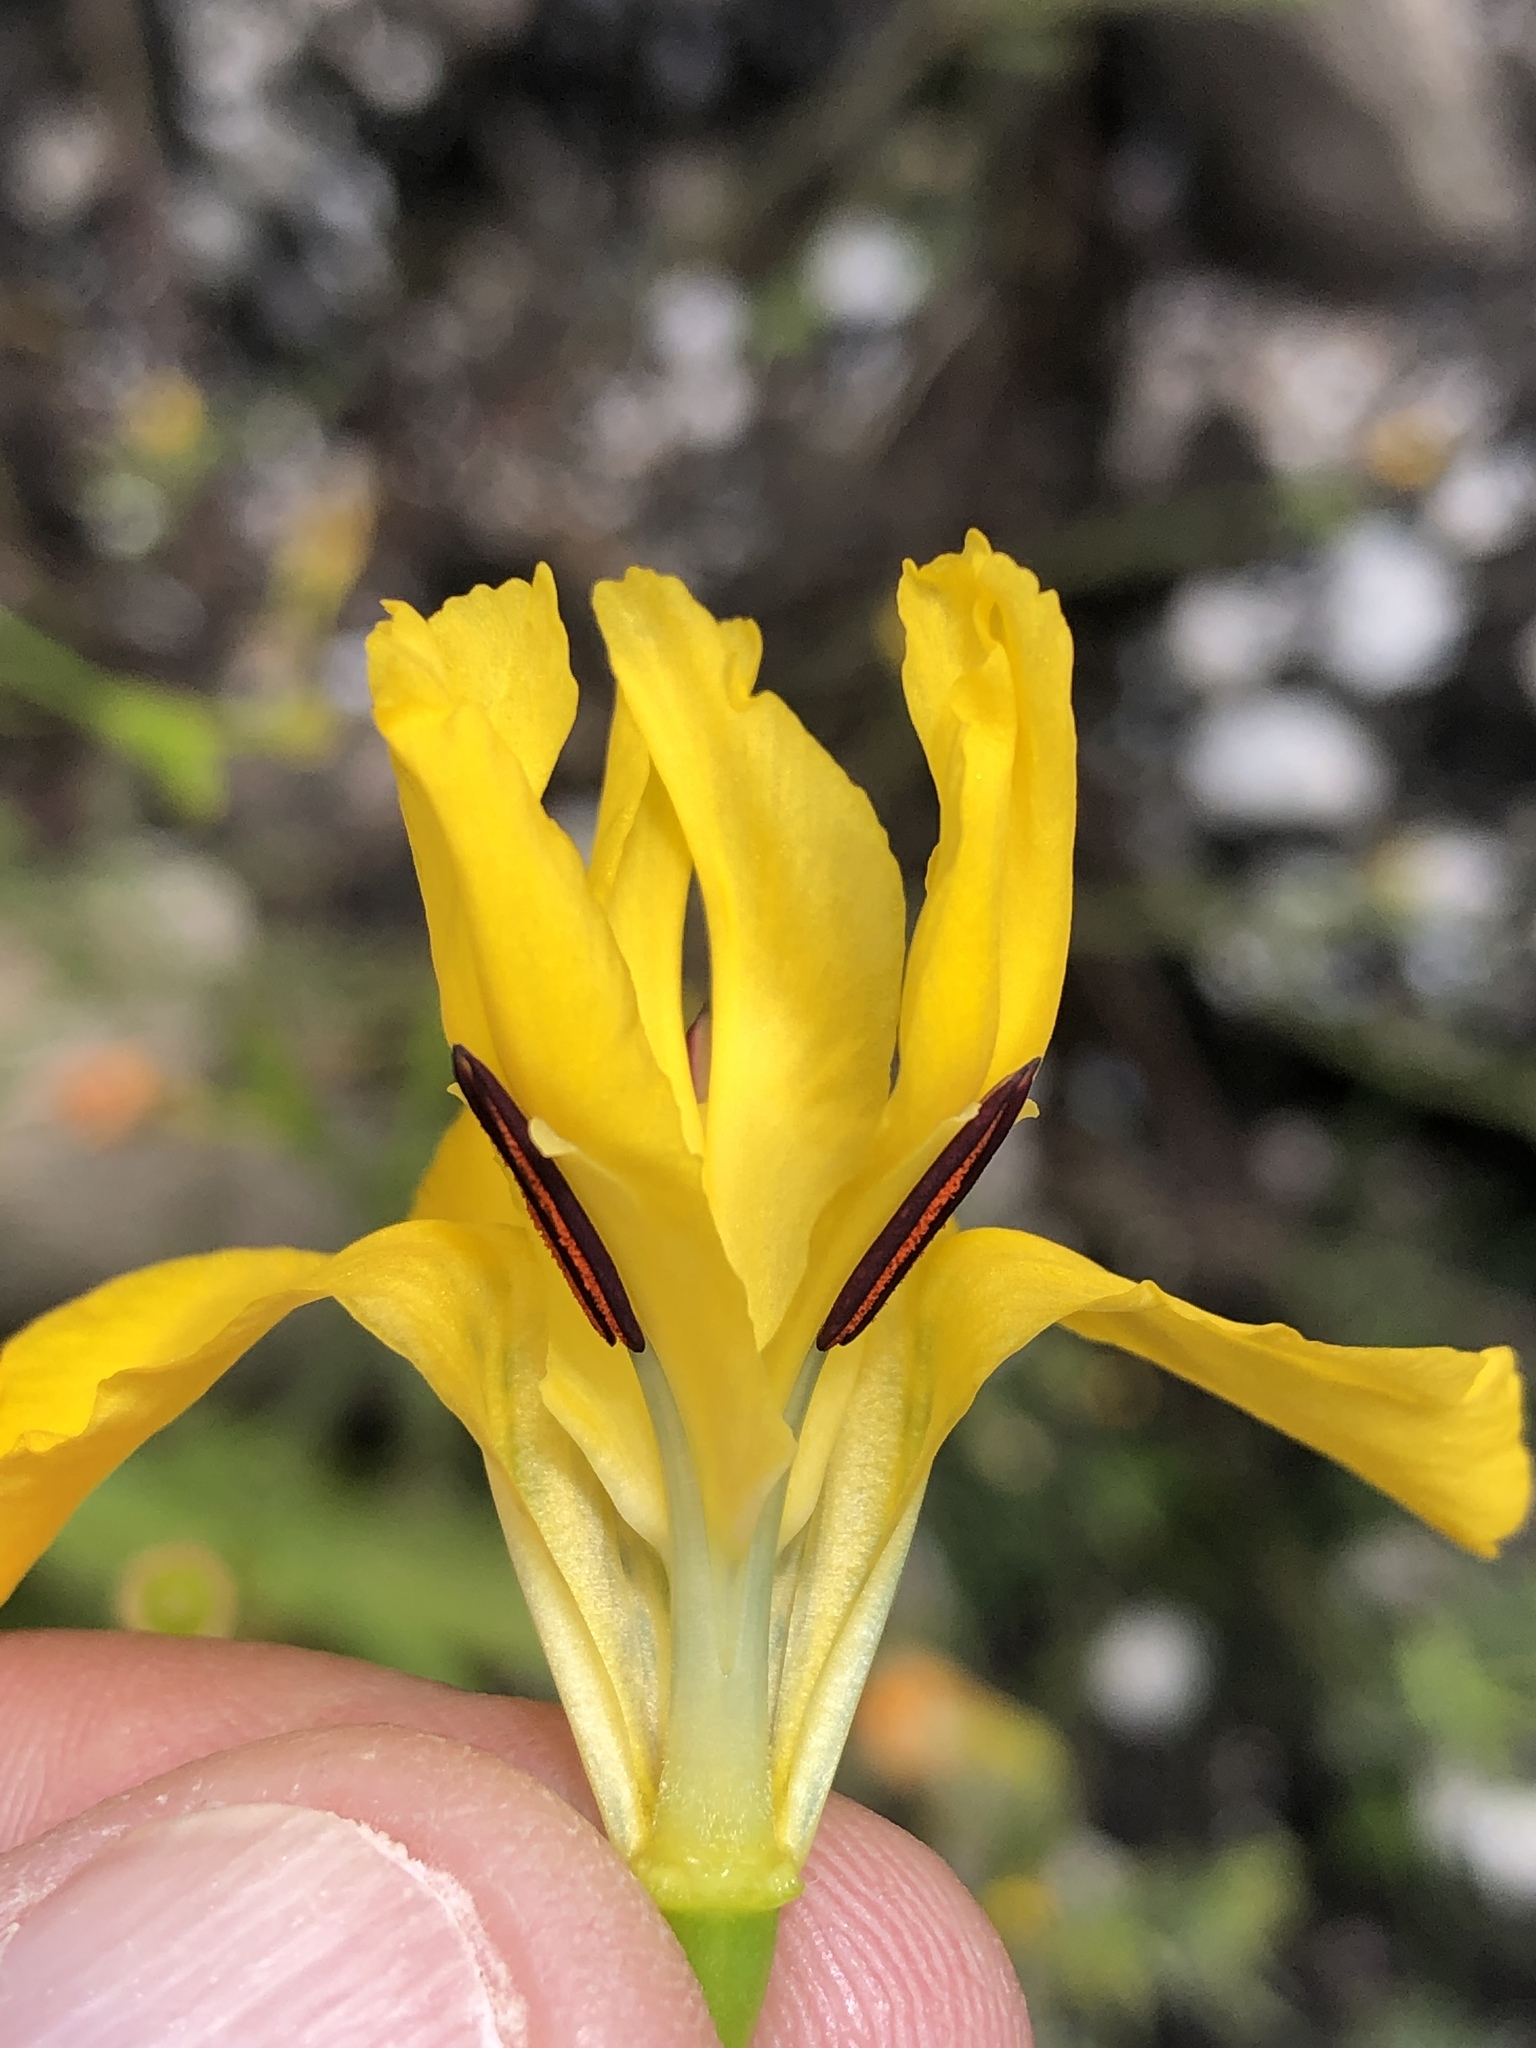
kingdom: Plantae
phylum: Tracheophyta
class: Liliopsida
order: Asparagales
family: Iridaceae
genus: Moraea
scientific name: Moraea ramosissima
